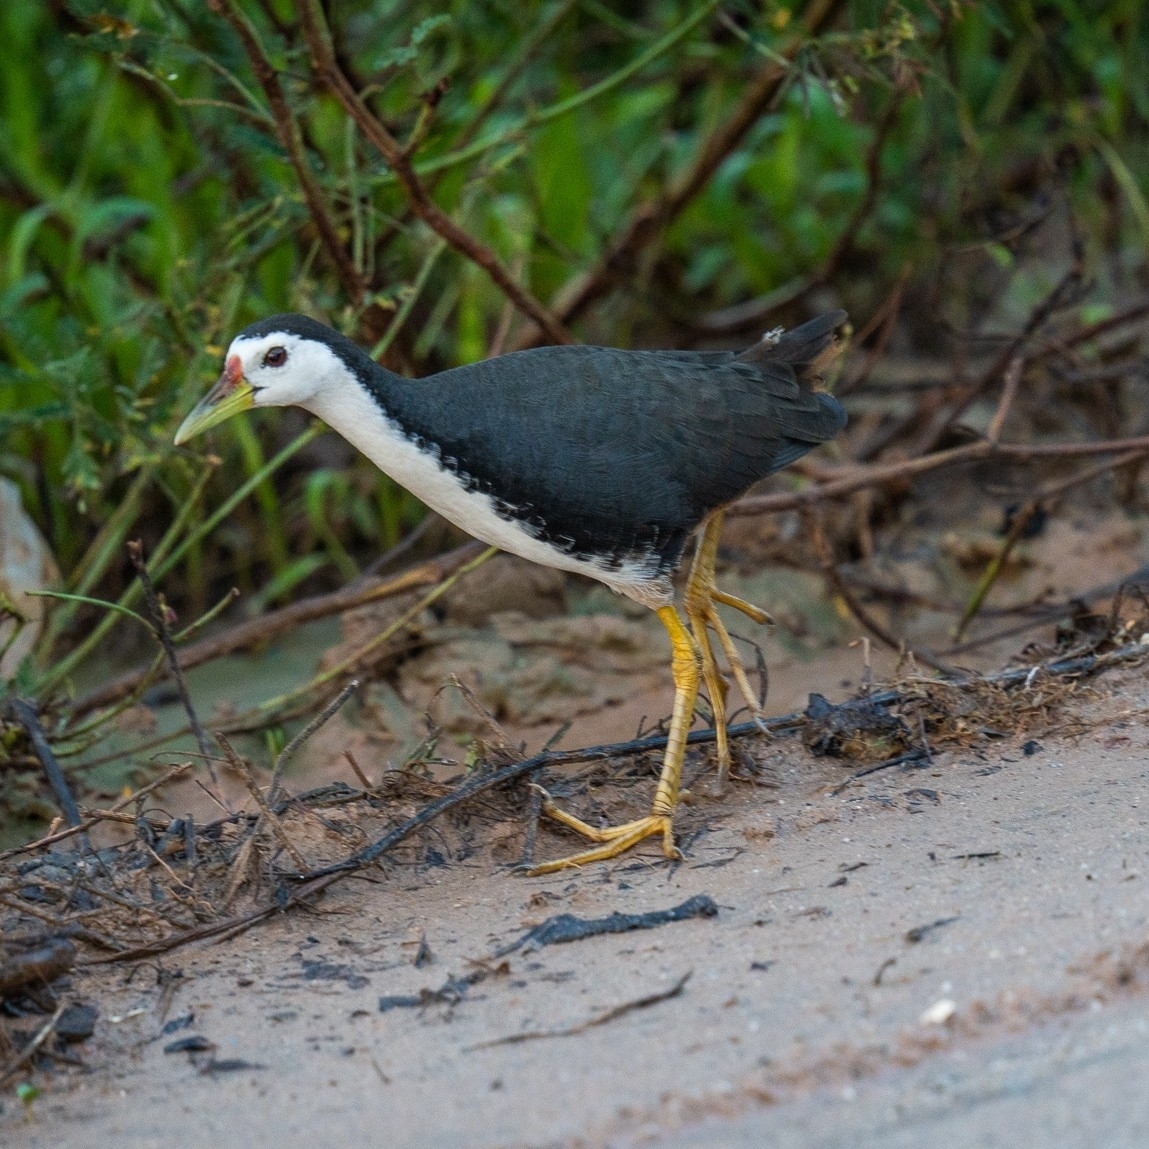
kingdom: Animalia
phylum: Chordata
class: Aves
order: Gruiformes
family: Rallidae
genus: Amaurornis
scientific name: Amaurornis phoenicurus
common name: White-breasted waterhen
